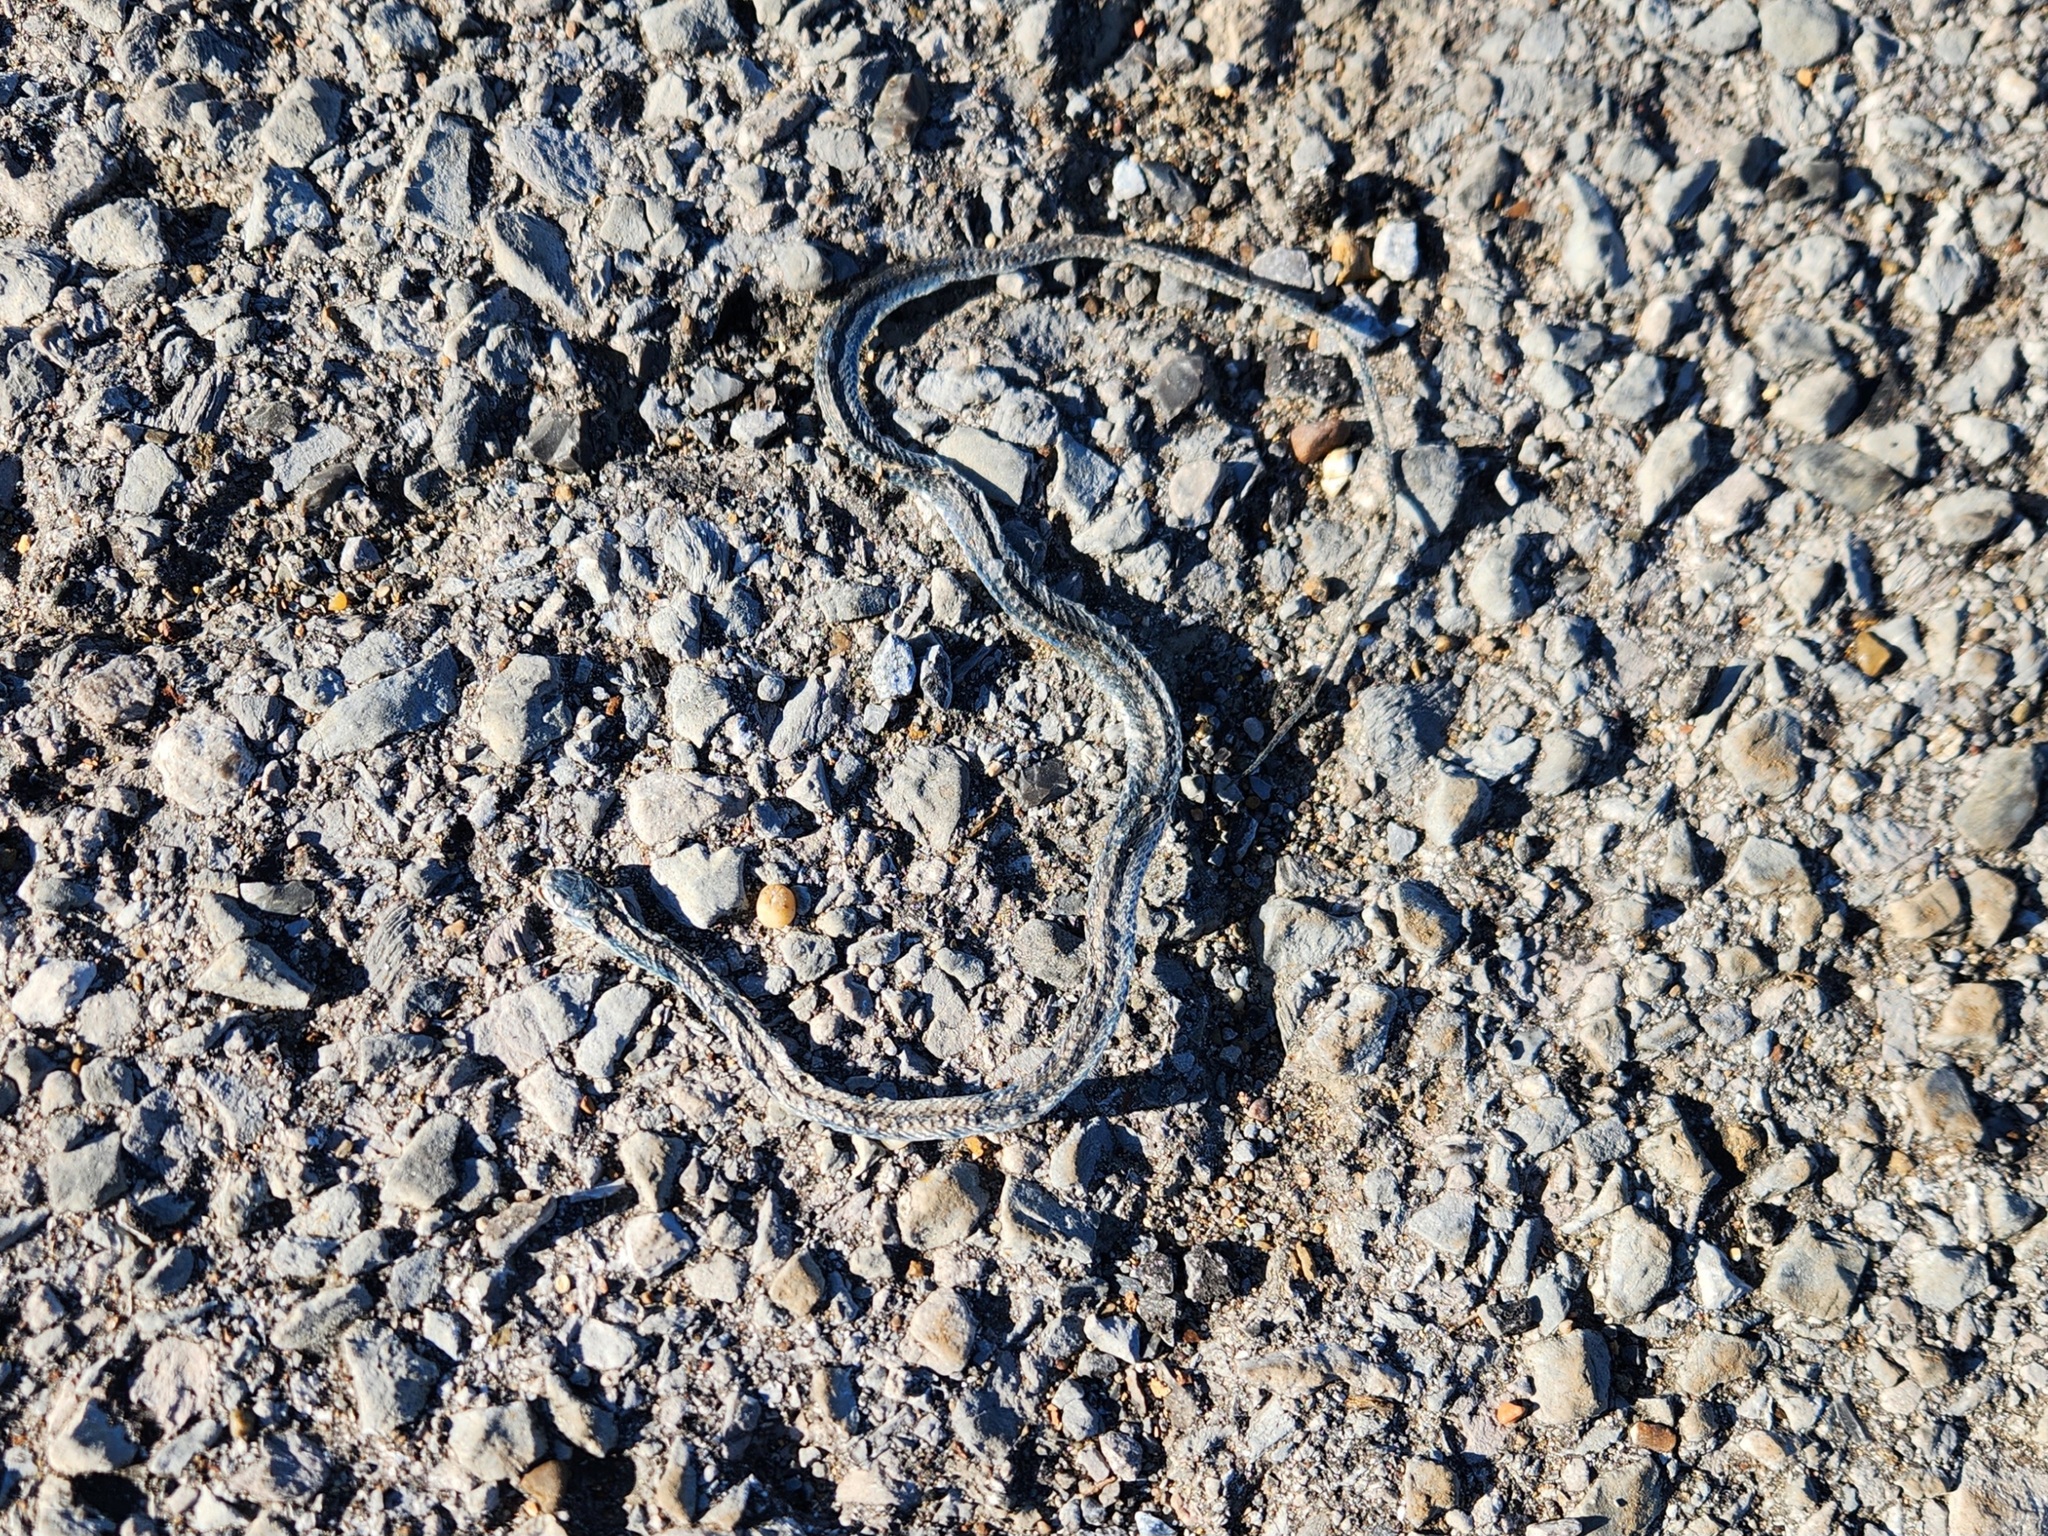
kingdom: Animalia
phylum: Chordata
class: Squamata
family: Colubridae
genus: Thamnophis
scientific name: Thamnophis sirtalis
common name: Common garter snake
